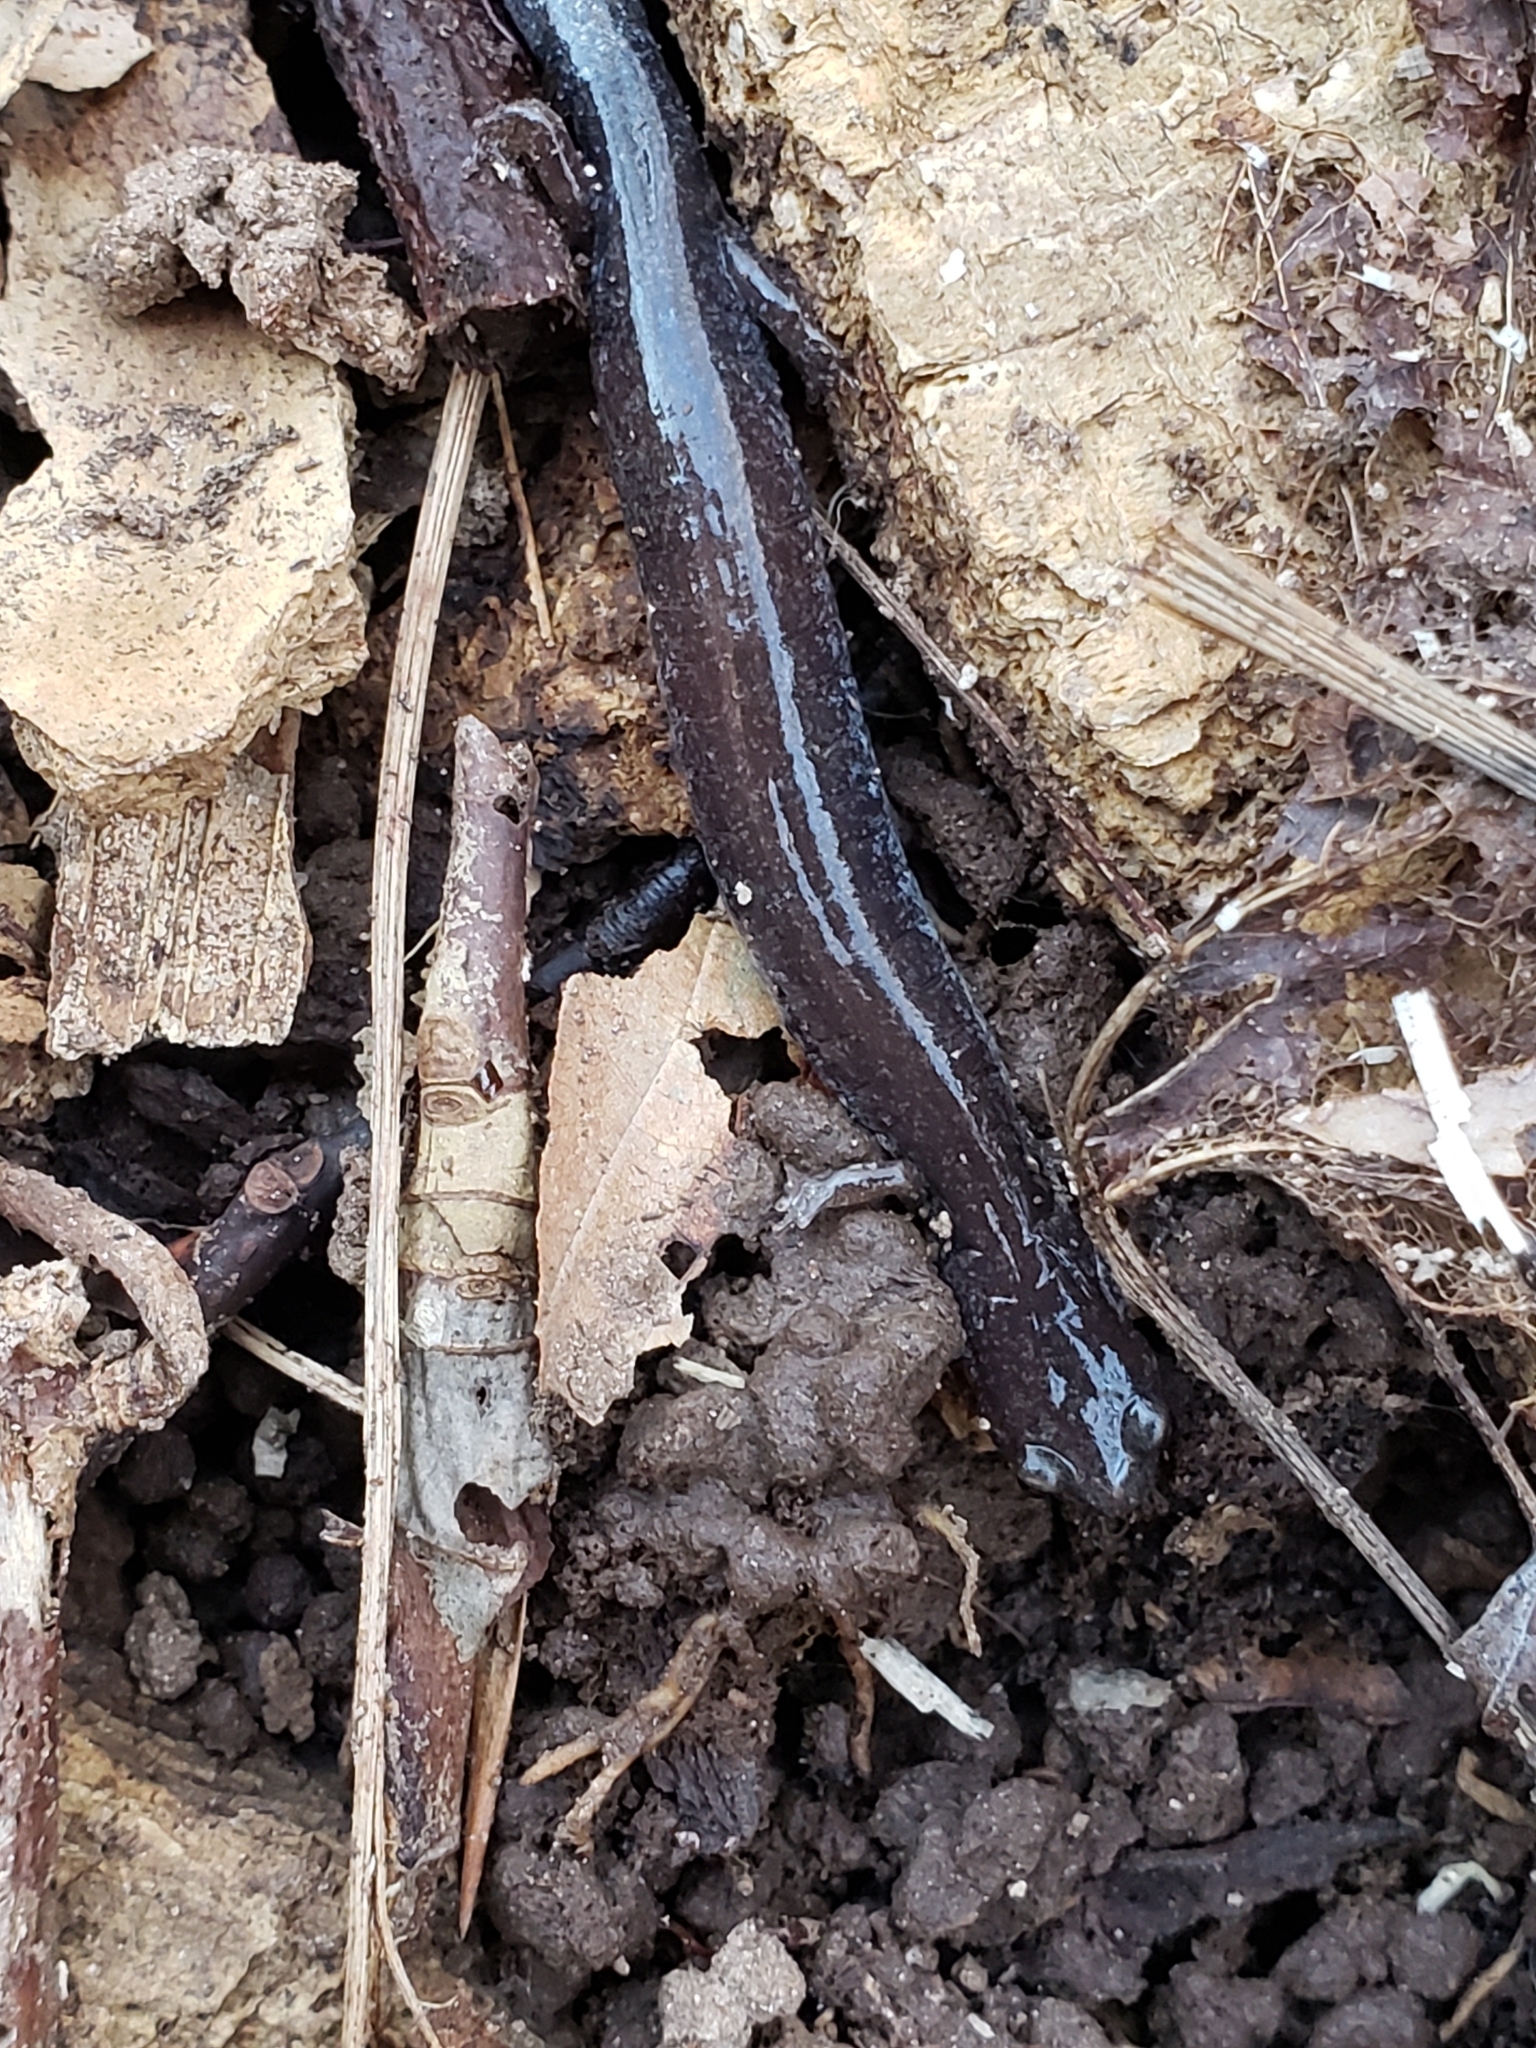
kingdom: Animalia
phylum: Chordata
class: Amphibia
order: Caudata
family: Plethodontidae
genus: Plethodon
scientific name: Plethodon cinereus
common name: Redback salamander
